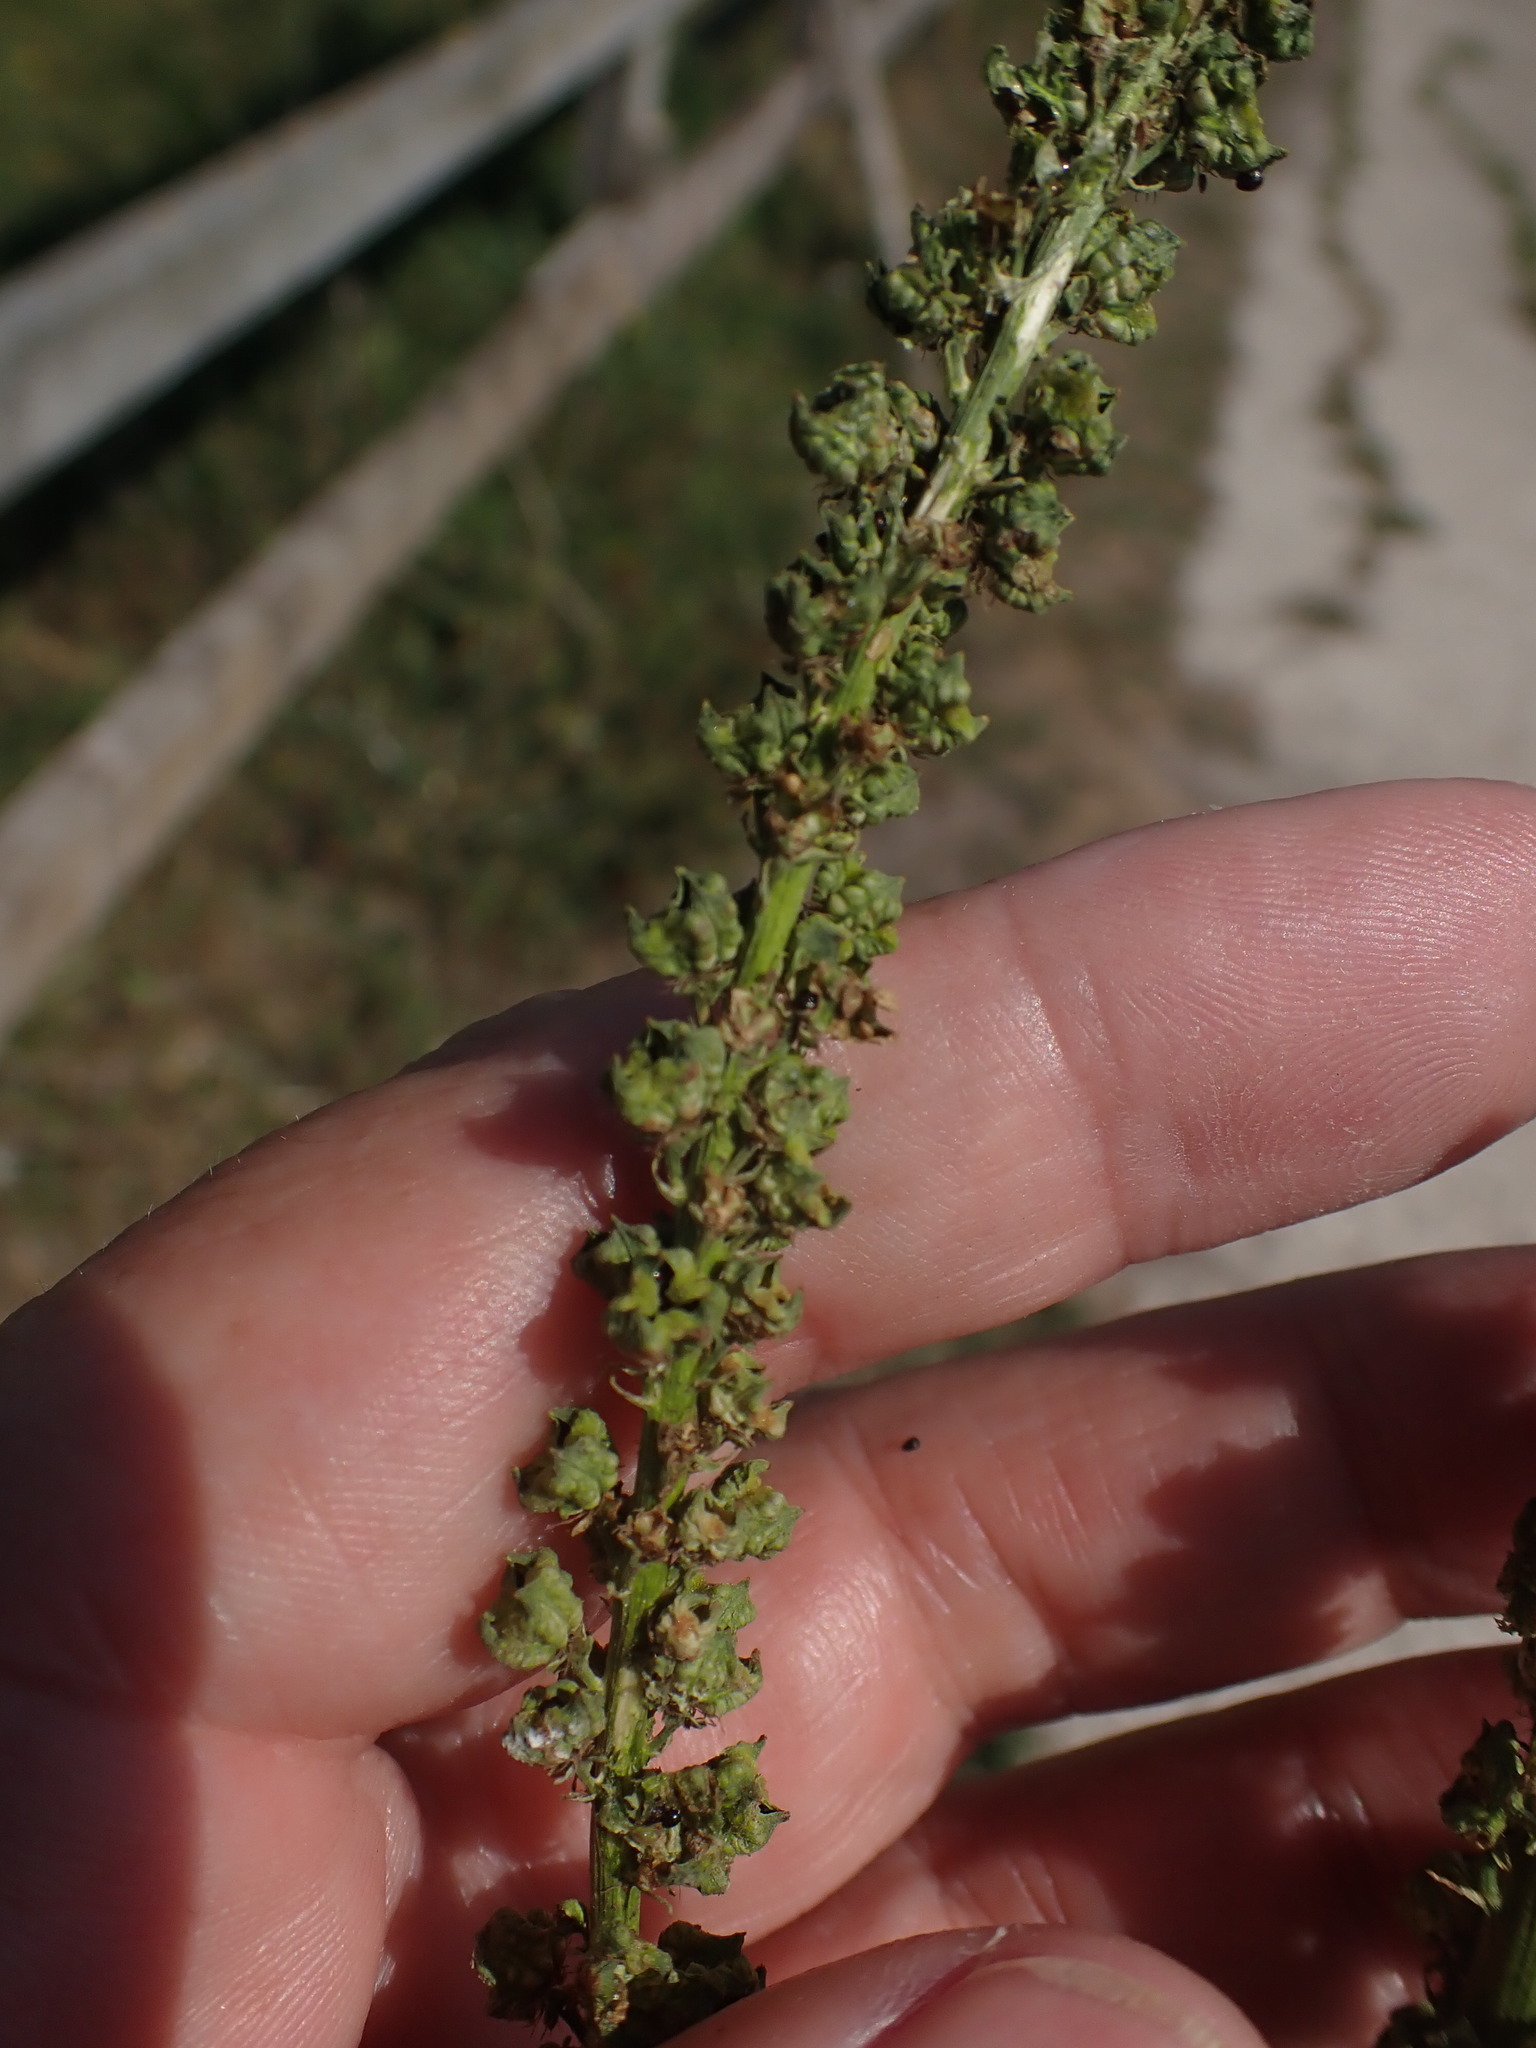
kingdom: Plantae
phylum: Tracheophyta
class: Magnoliopsida
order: Brassicales
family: Resedaceae
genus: Reseda
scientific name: Reseda luteola
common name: Weld
